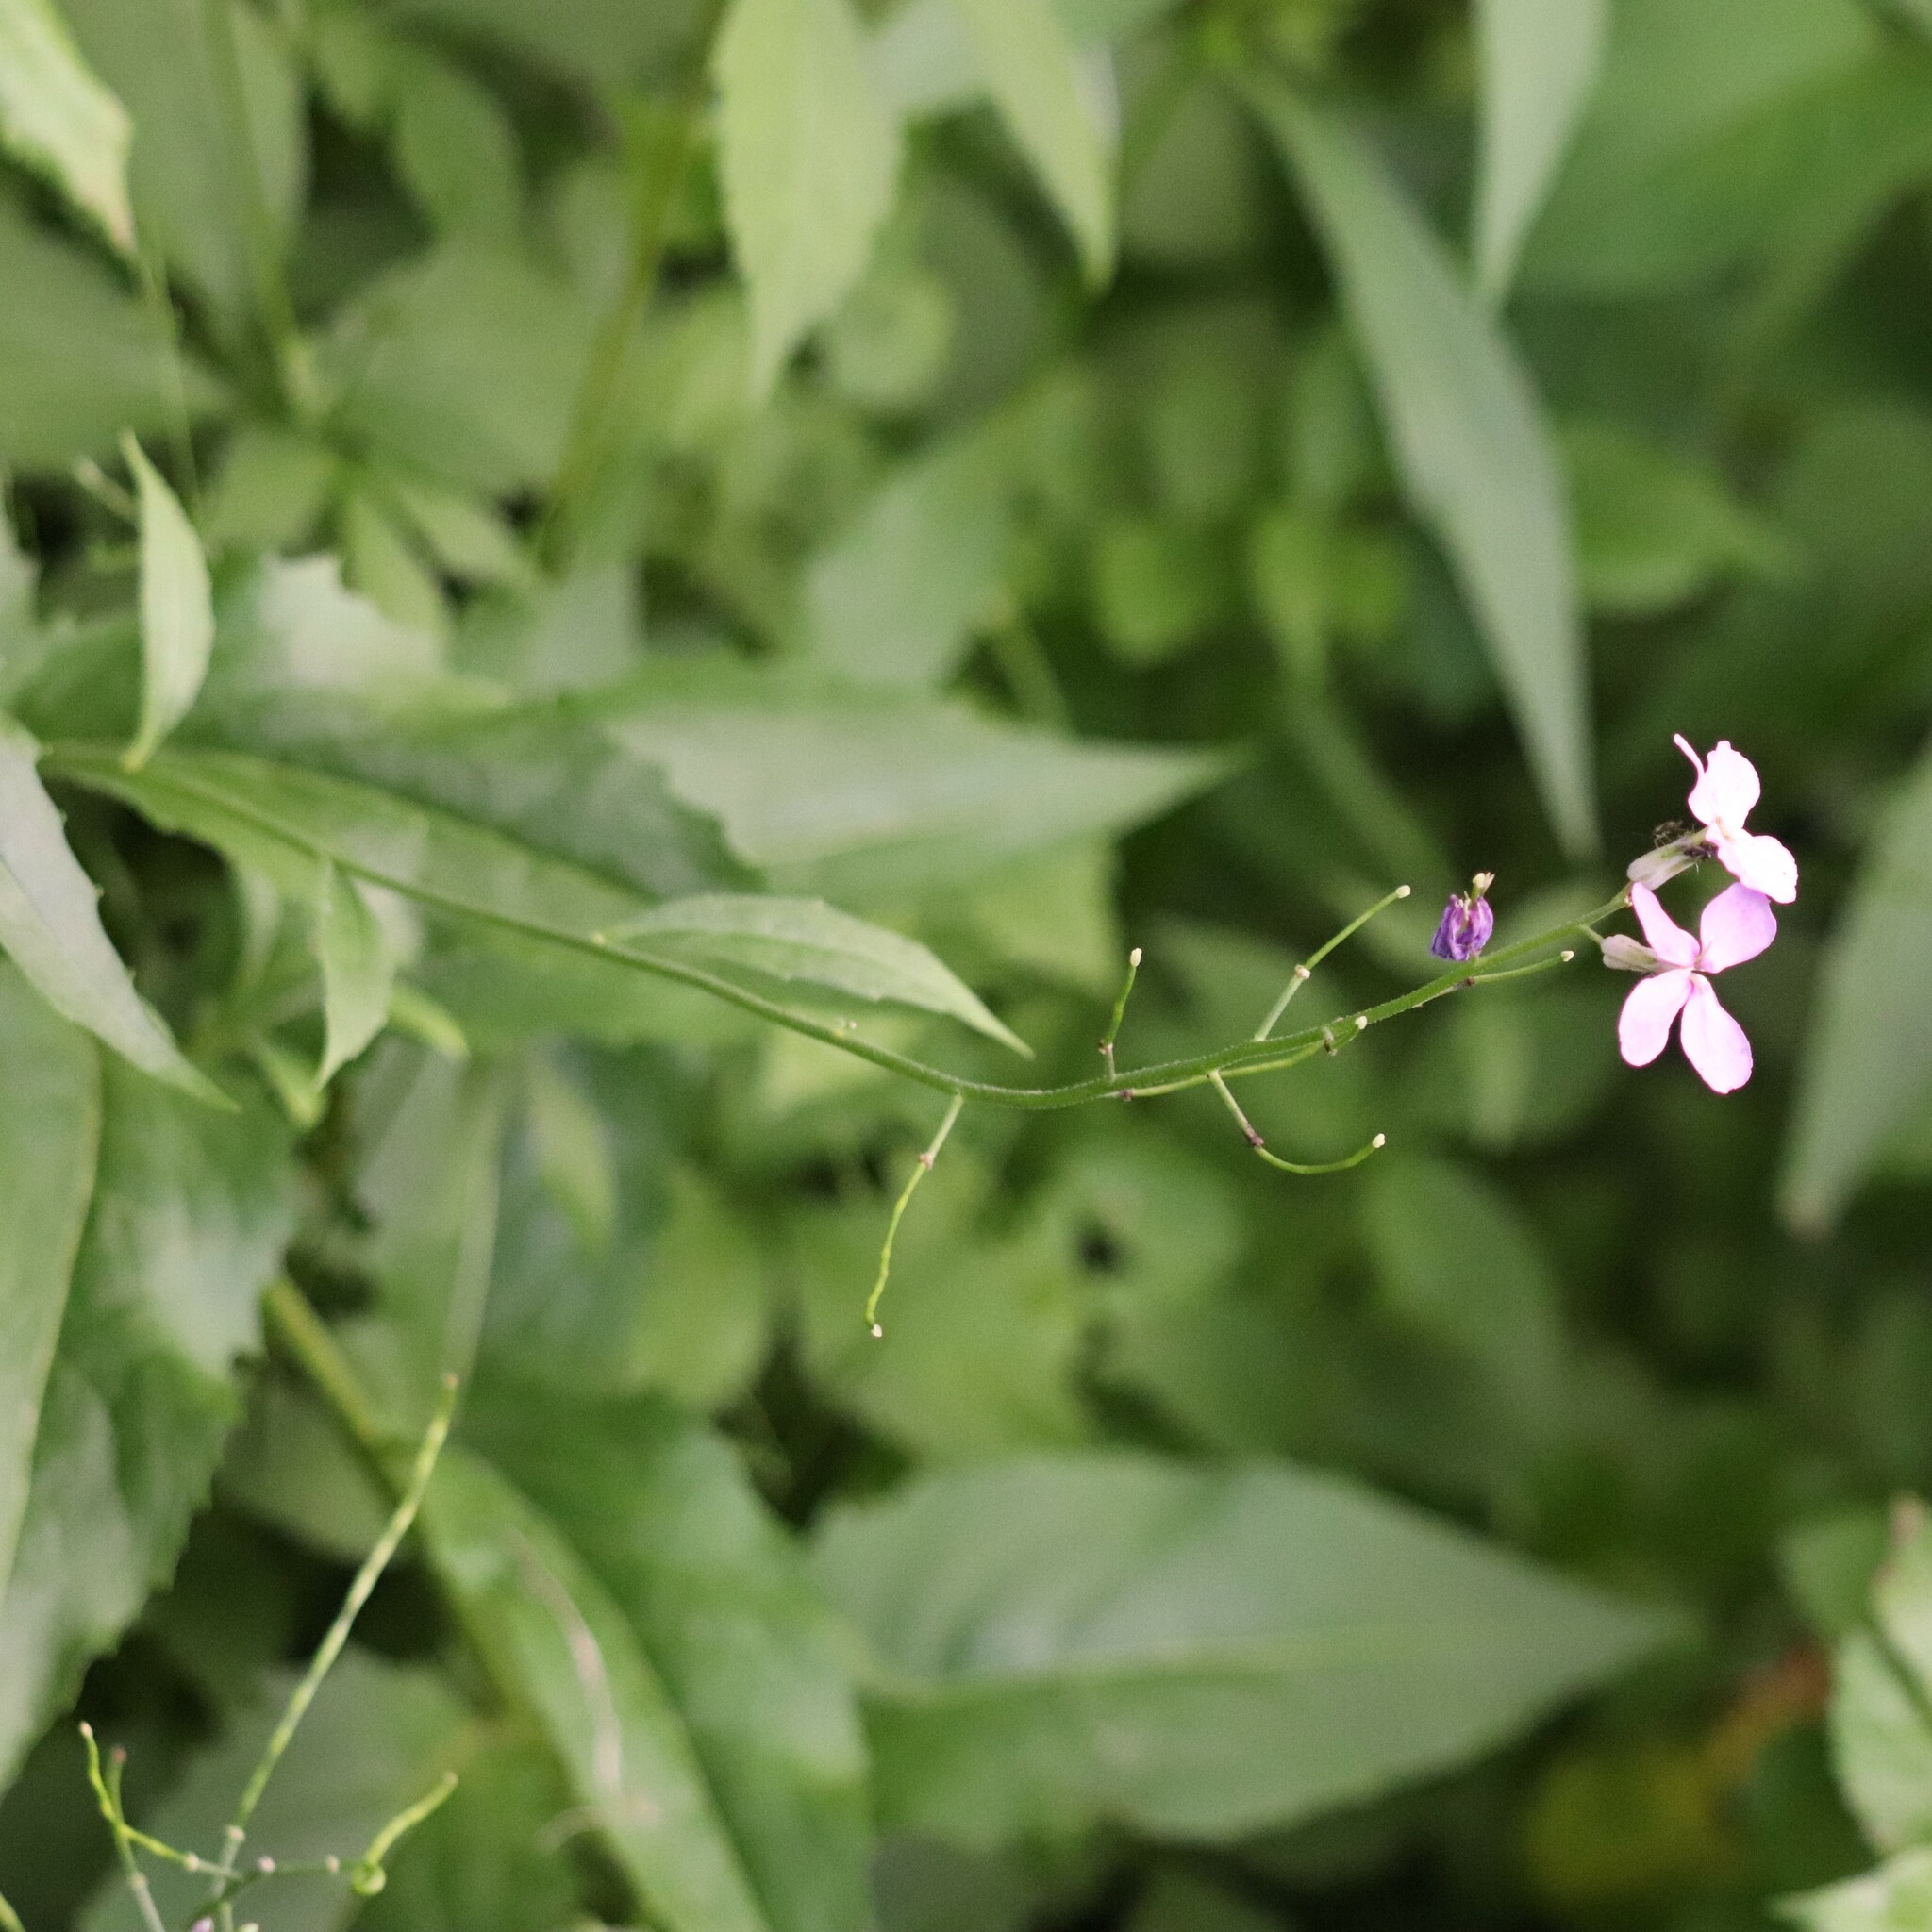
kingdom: Plantae
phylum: Tracheophyta
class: Magnoliopsida
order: Brassicales
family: Brassicaceae
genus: Hesperis
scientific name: Hesperis matronalis
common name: Dame's-violet
